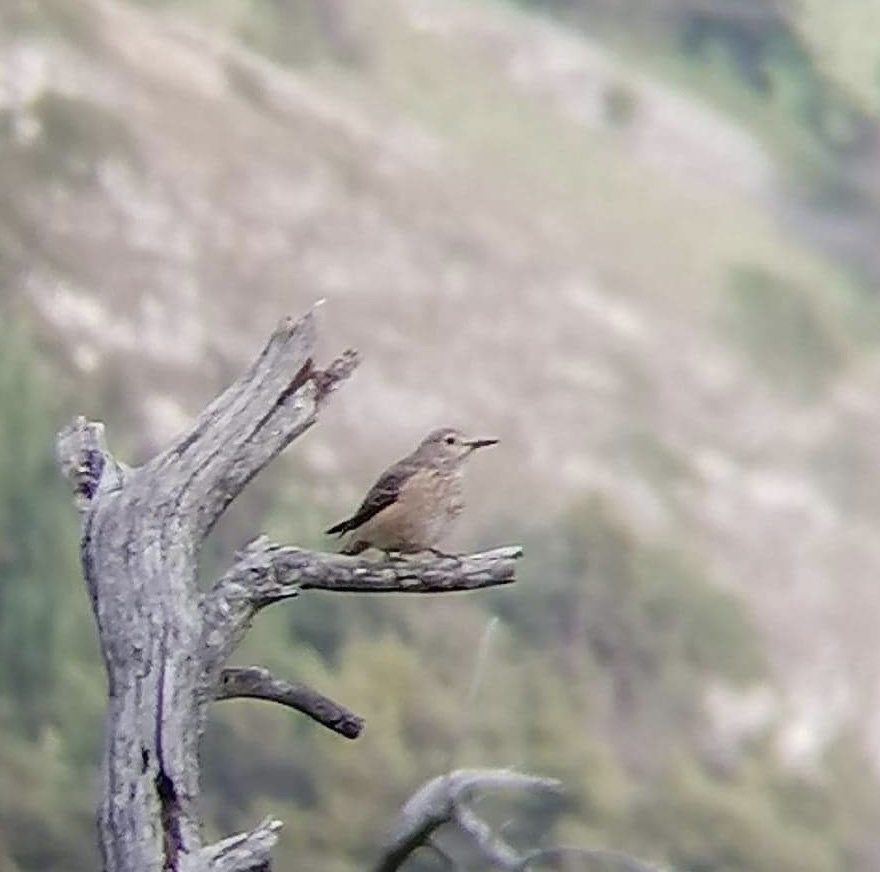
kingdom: Animalia
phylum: Chordata
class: Aves
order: Passeriformes
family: Muscicapidae
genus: Monticola
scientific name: Monticola saxatilis
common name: Rufous-tailed rock thrush
